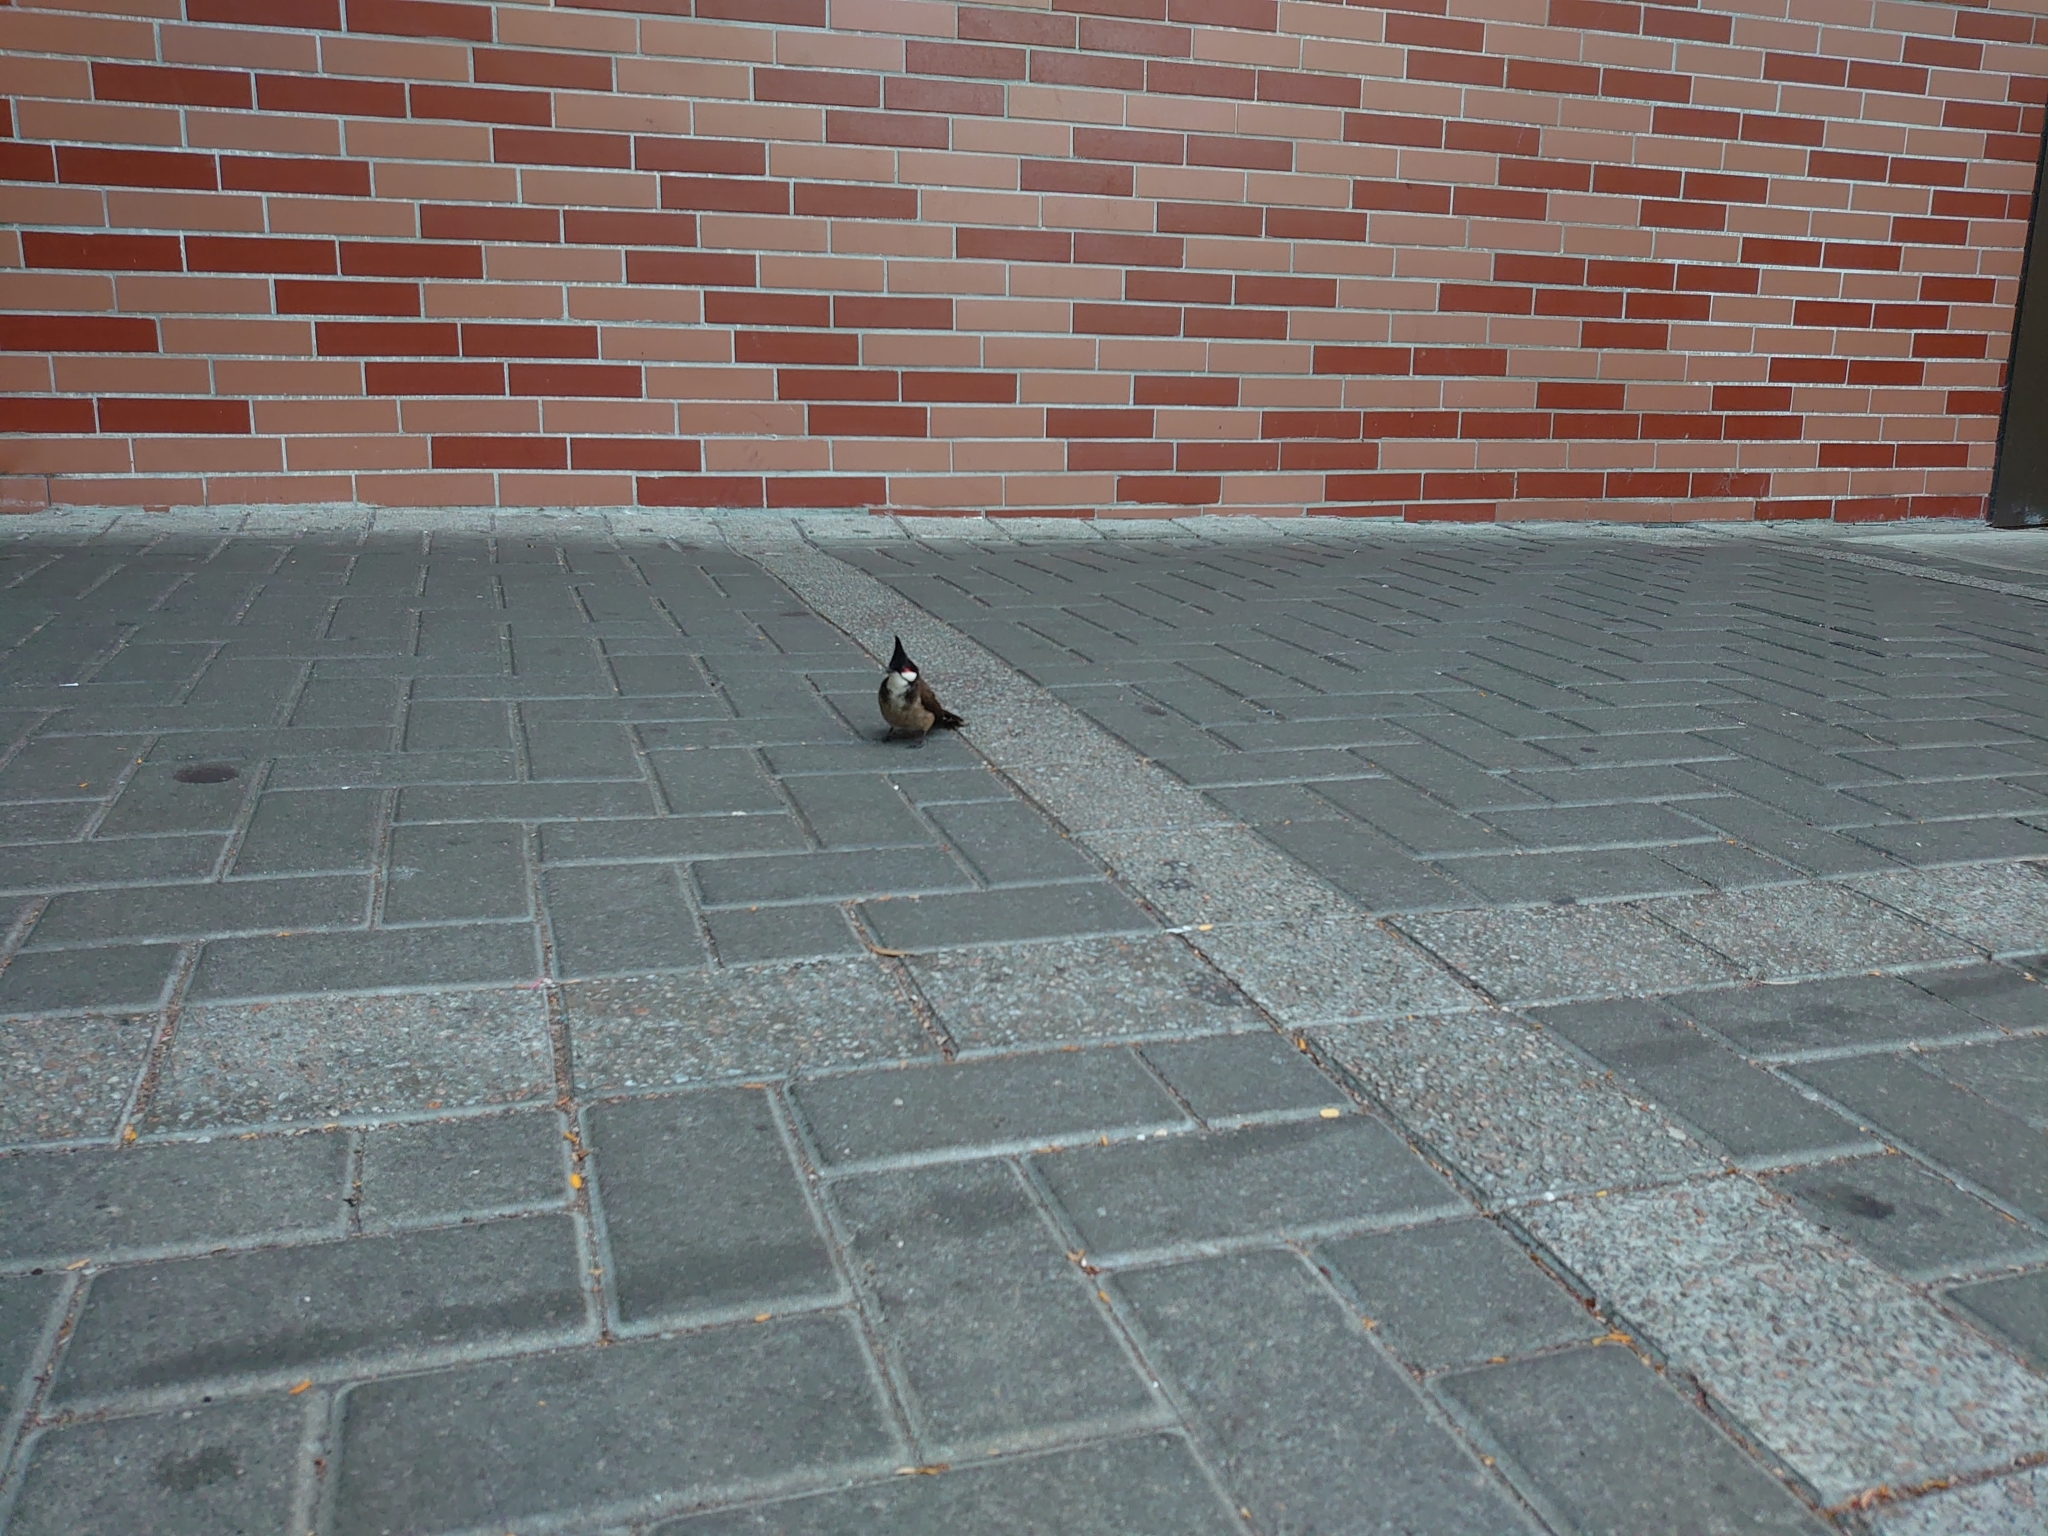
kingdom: Animalia
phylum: Chordata
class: Aves
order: Passeriformes
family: Pycnonotidae
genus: Pycnonotus
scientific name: Pycnonotus jocosus
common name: Red-whiskered bulbul
